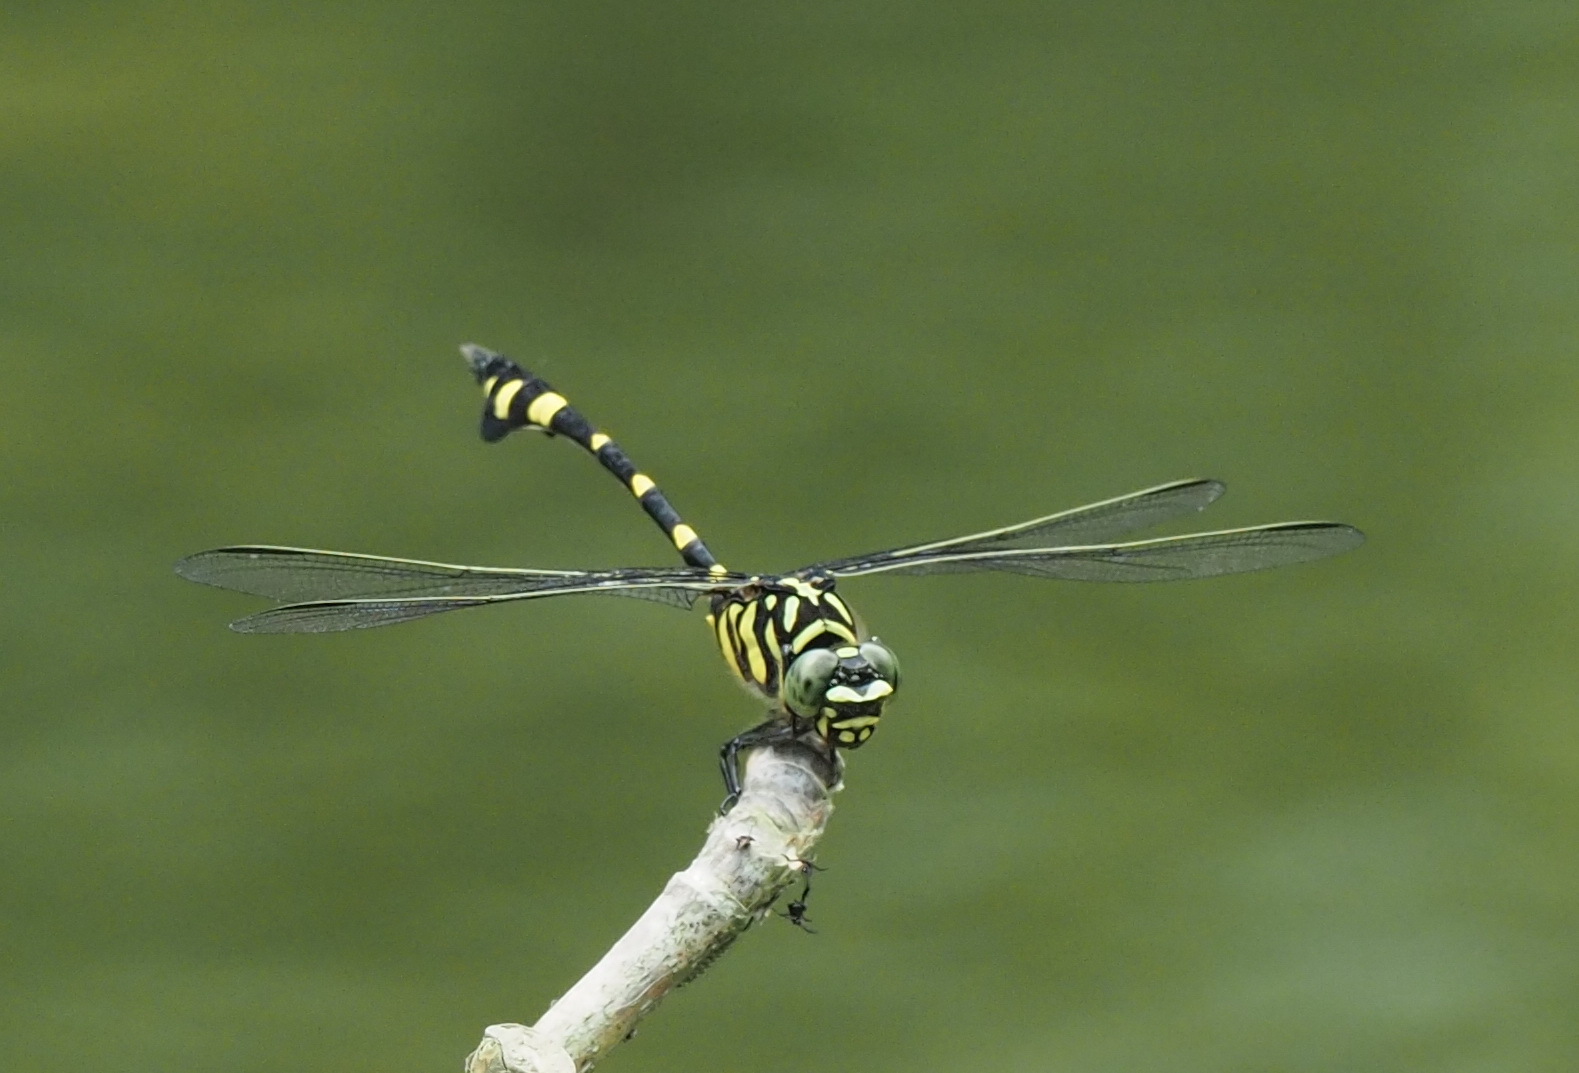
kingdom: Animalia
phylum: Arthropoda
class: Insecta
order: Odonata
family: Gomphidae
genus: Ictinogomphus
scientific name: Ictinogomphus rapax
